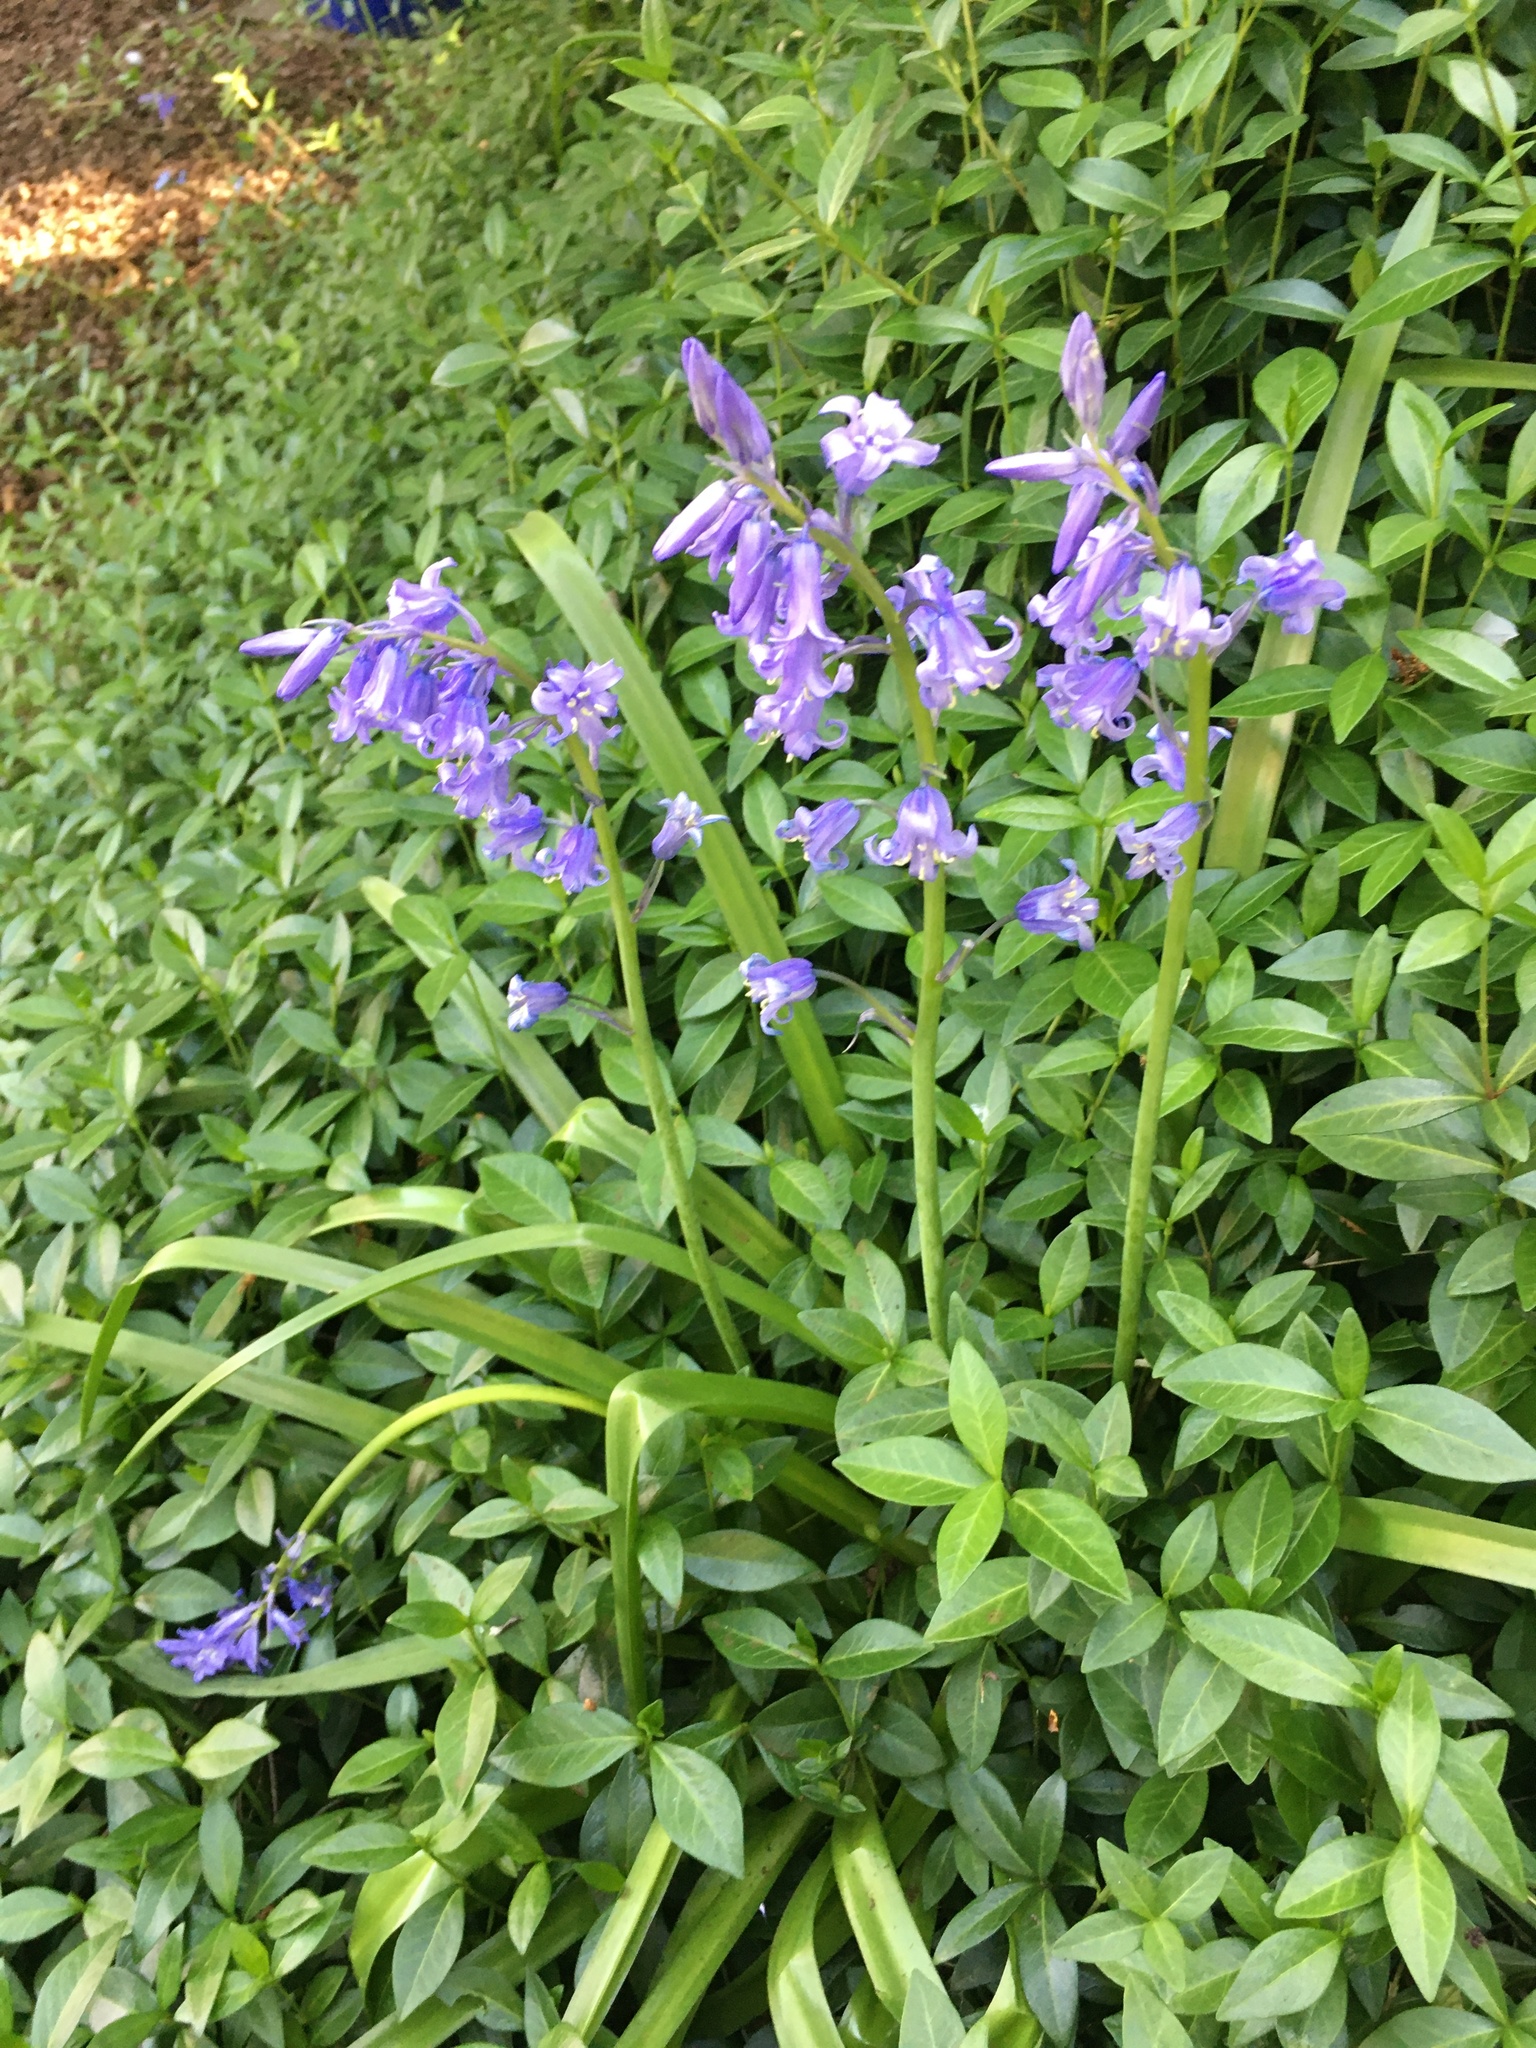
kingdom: Plantae
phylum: Tracheophyta
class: Liliopsida
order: Asparagales
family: Asparagaceae
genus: Hyacinthoides
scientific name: Hyacinthoides hispanica
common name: Spanish bluebell
